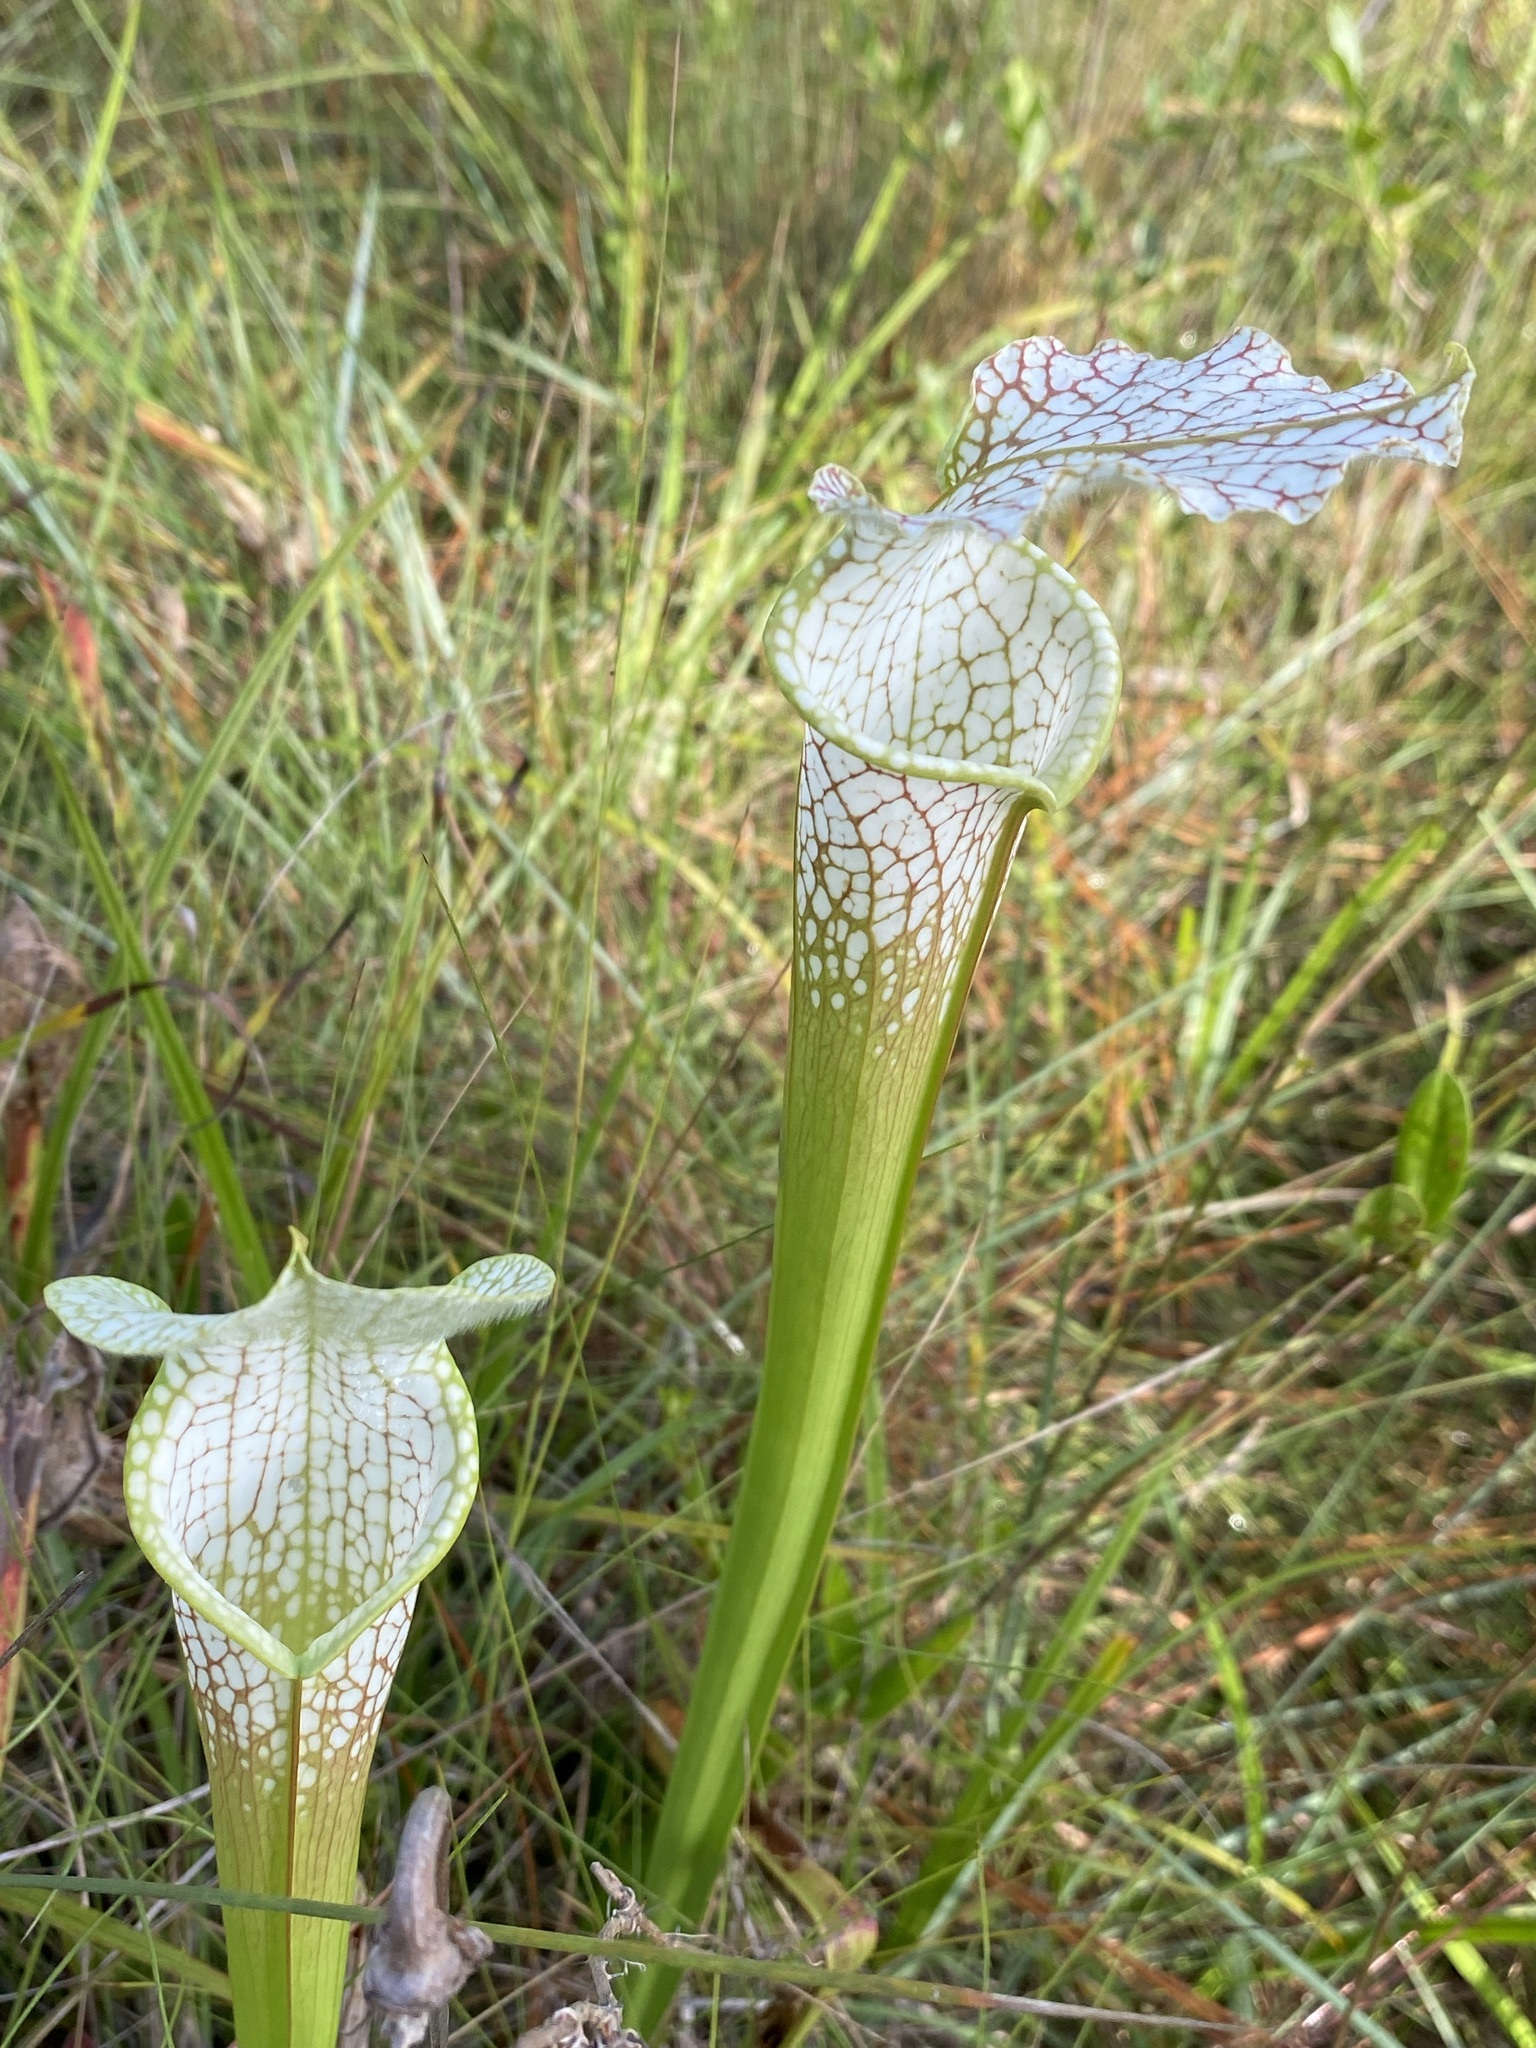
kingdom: Plantae
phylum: Tracheophyta
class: Magnoliopsida
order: Ericales
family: Sarraceniaceae
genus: Sarracenia
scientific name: Sarracenia leucophylla
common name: Purple trumpetleaf
